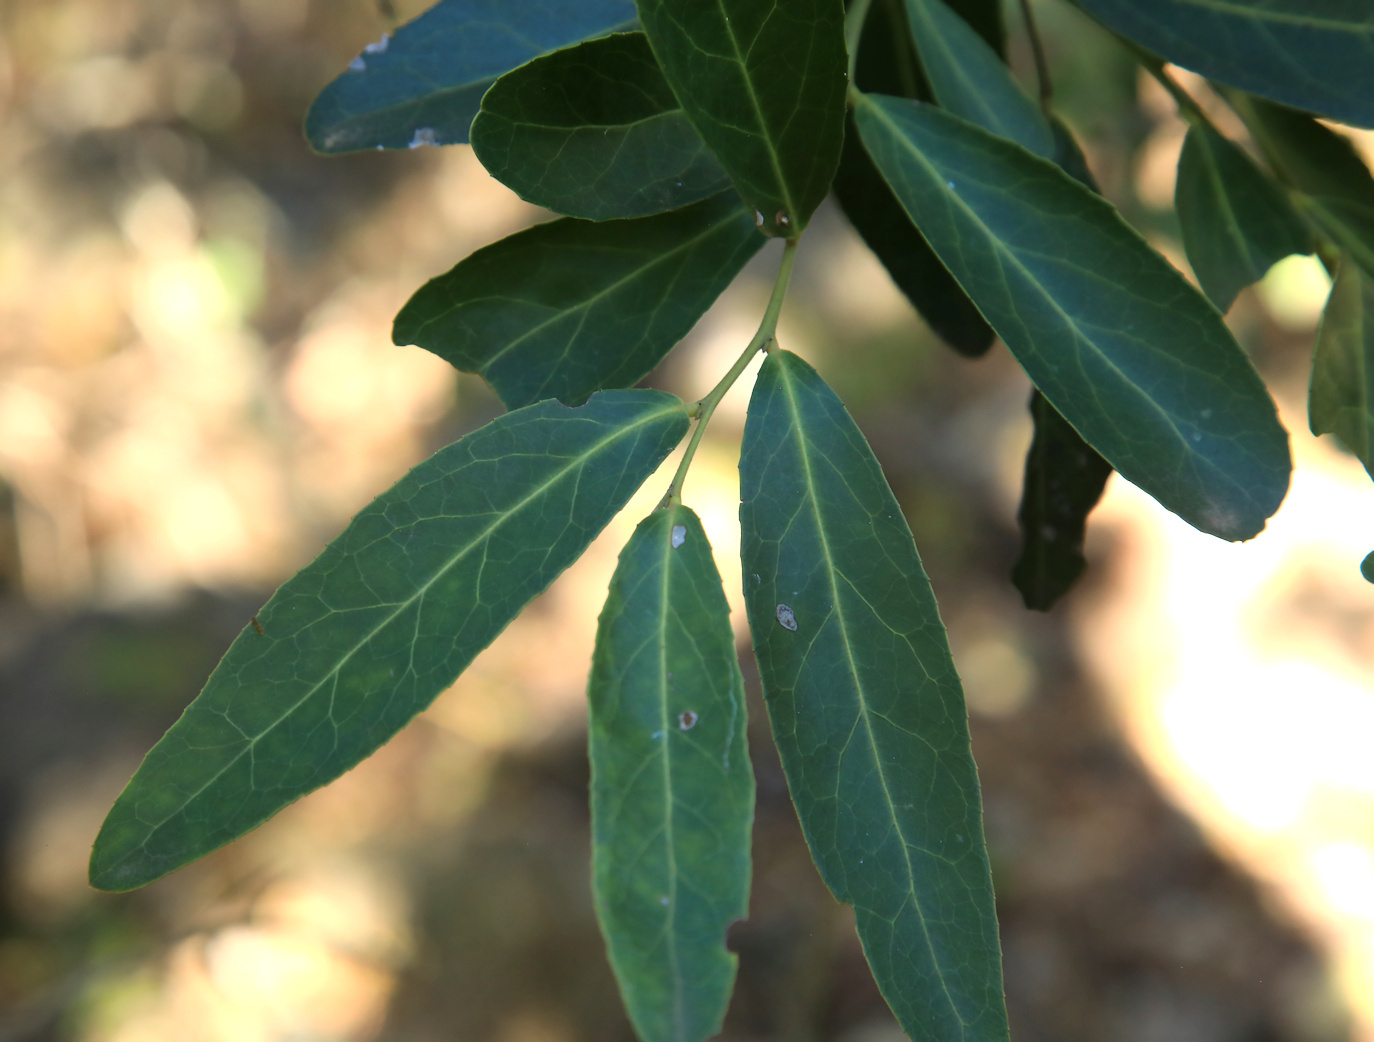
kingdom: Plantae
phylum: Tracheophyta
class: Magnoliopsida
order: Celastrales
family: Celastraceae
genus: Mystroxylon
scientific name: Mystroxylon aethiopicum
